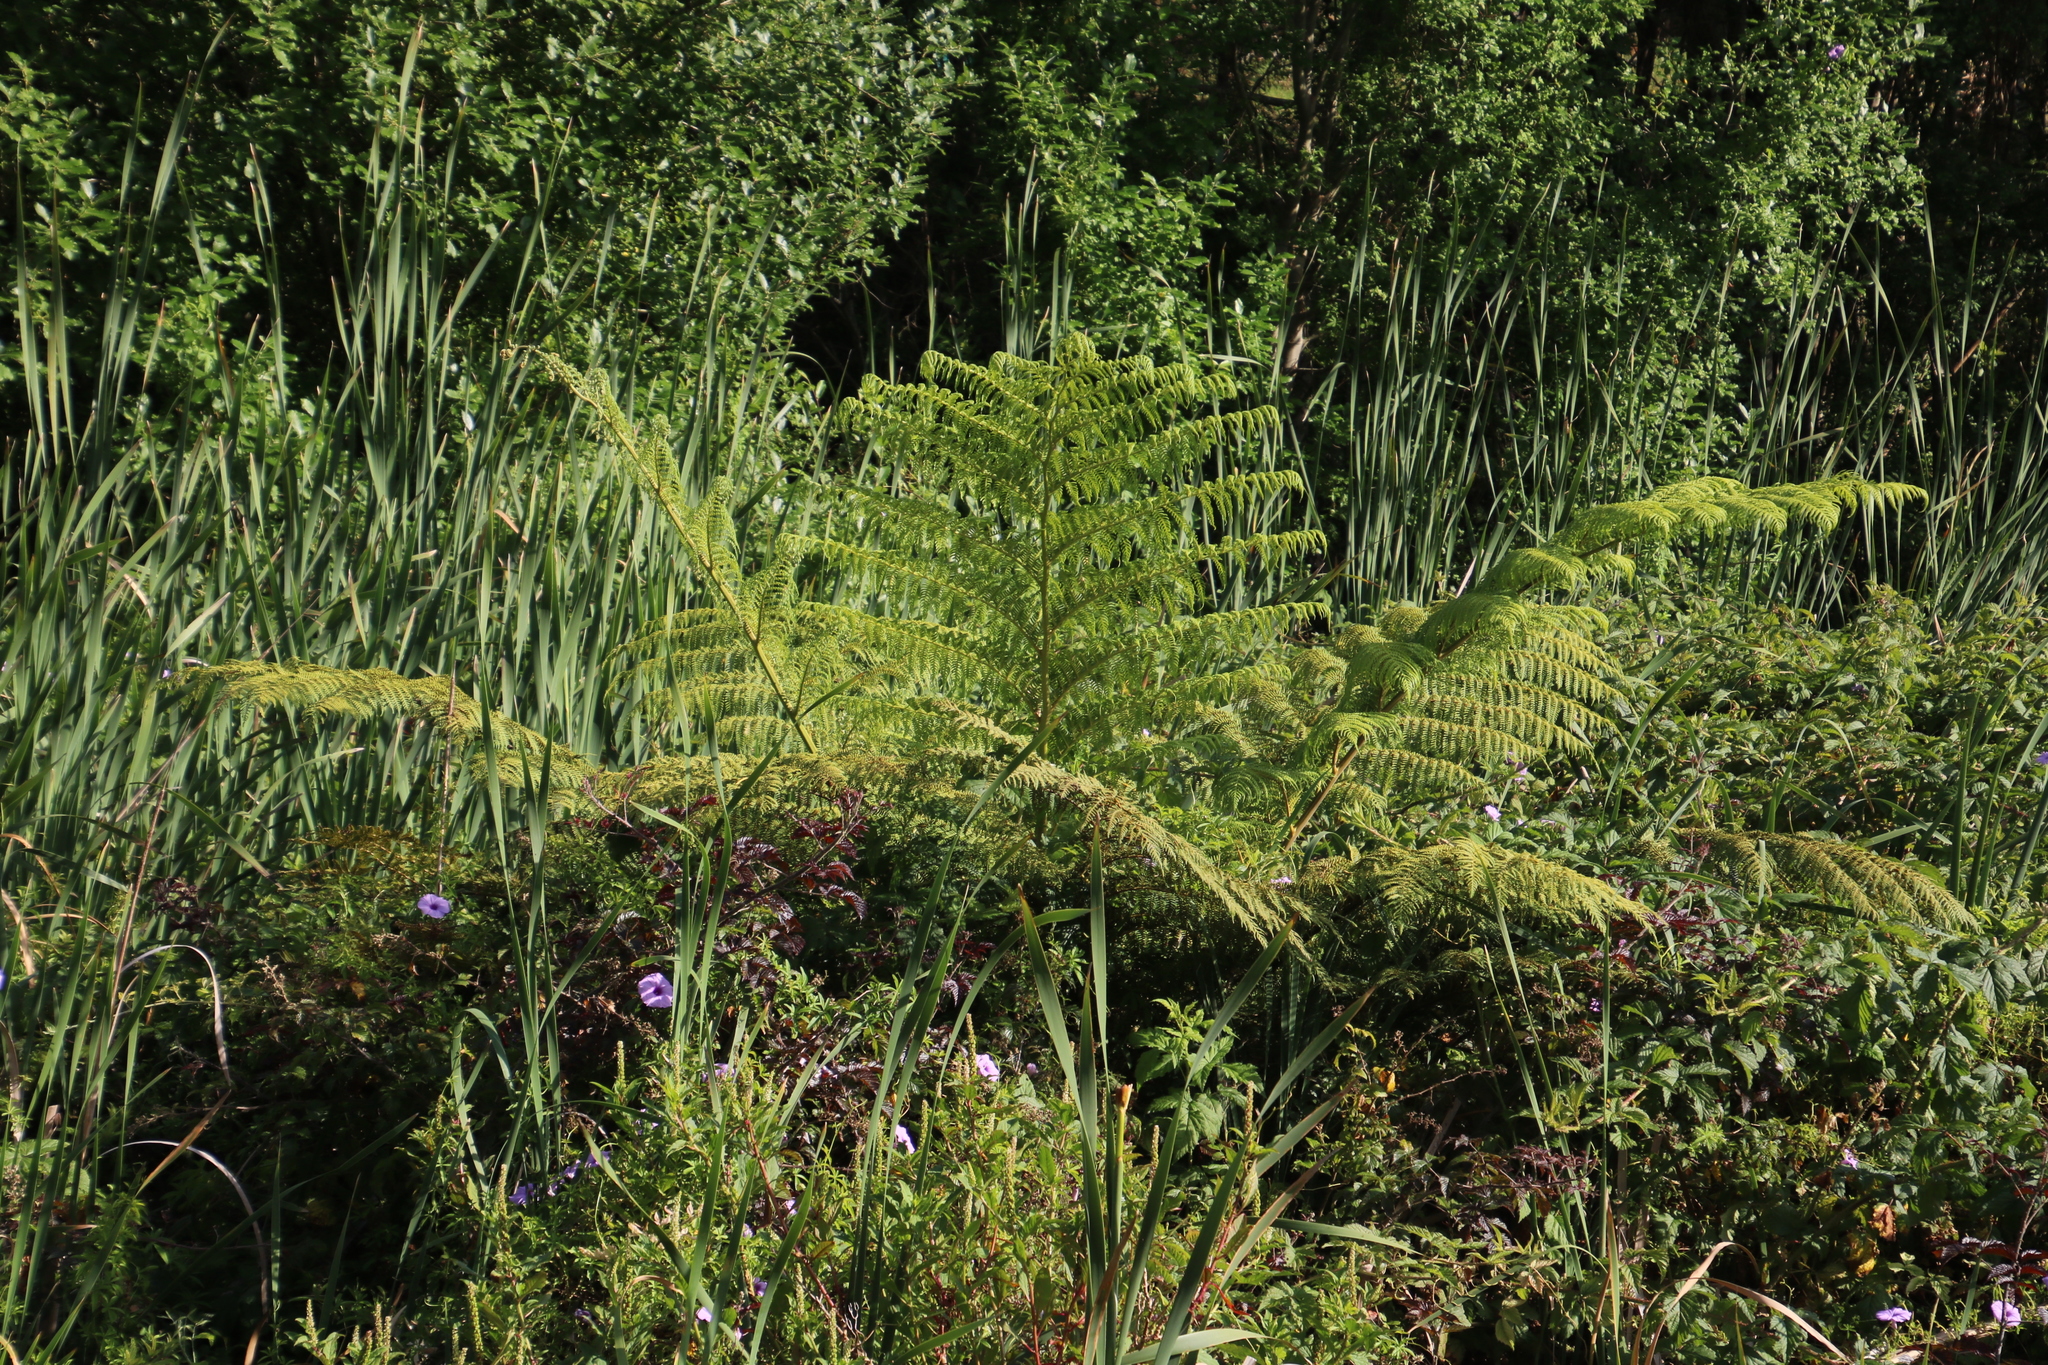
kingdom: Plantae
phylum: Tracheophyta
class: Polypodiopsida
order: Cyatheales
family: Cyatheaceae
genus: Sphaeropteris
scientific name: Sphaeropteris cooperi
